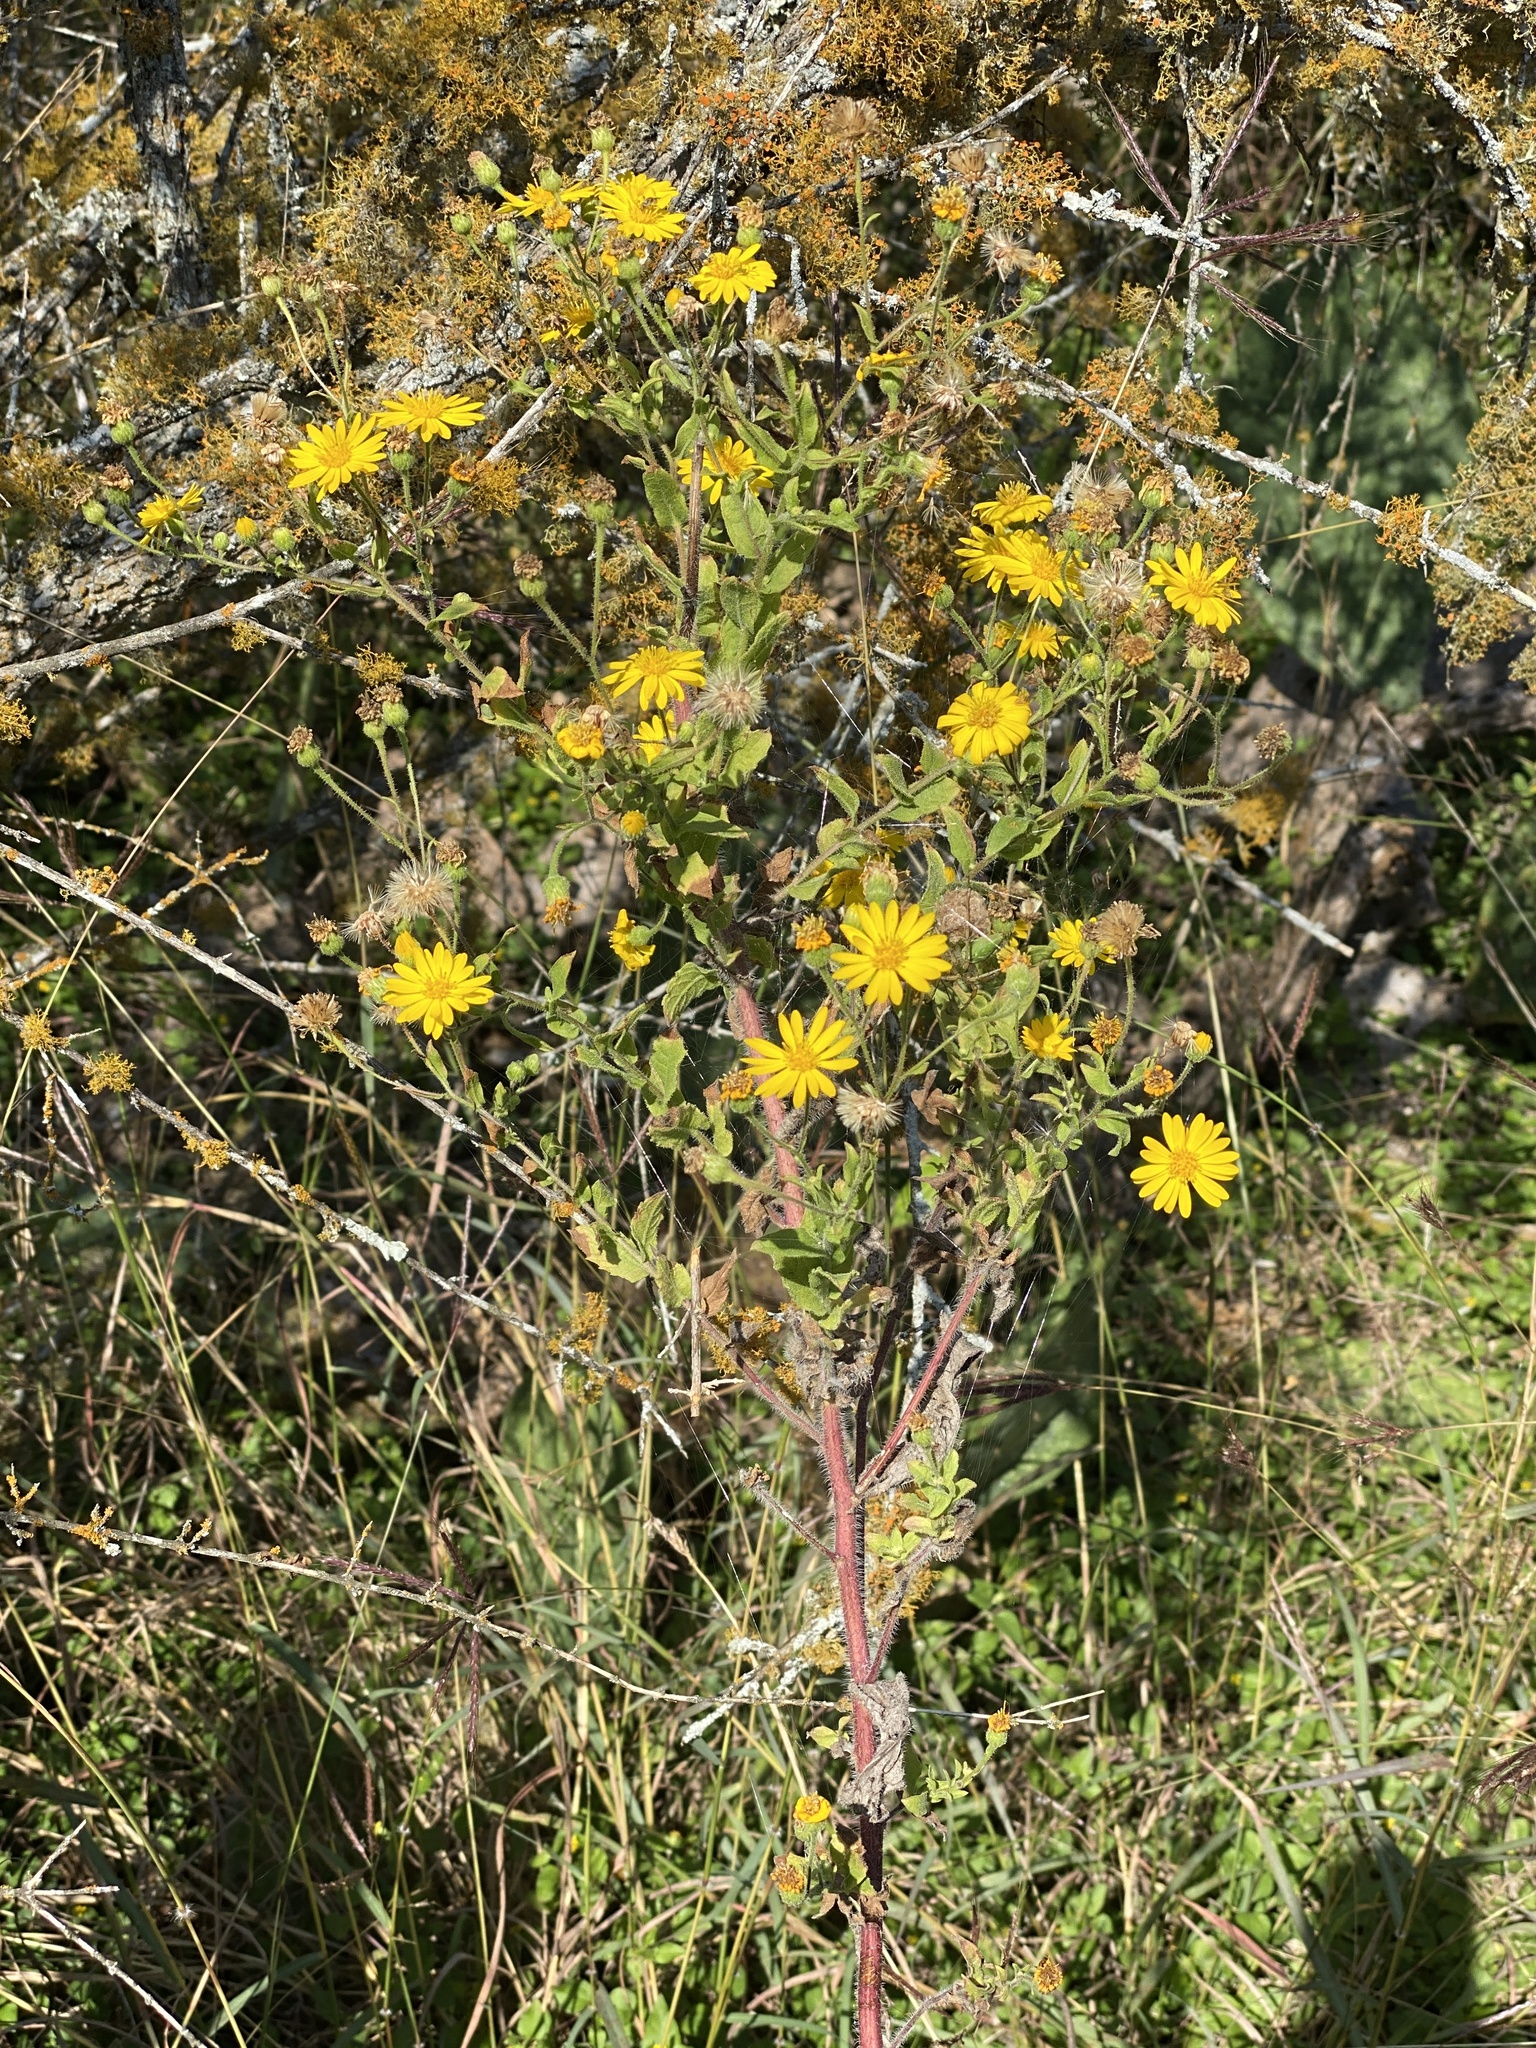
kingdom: Plantae
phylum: Tracheophyta
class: Magnoliopsida
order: Asterales
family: Asteraceae
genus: Heterotheca
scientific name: Heterotheca subaxillaris
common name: Camphorweed
